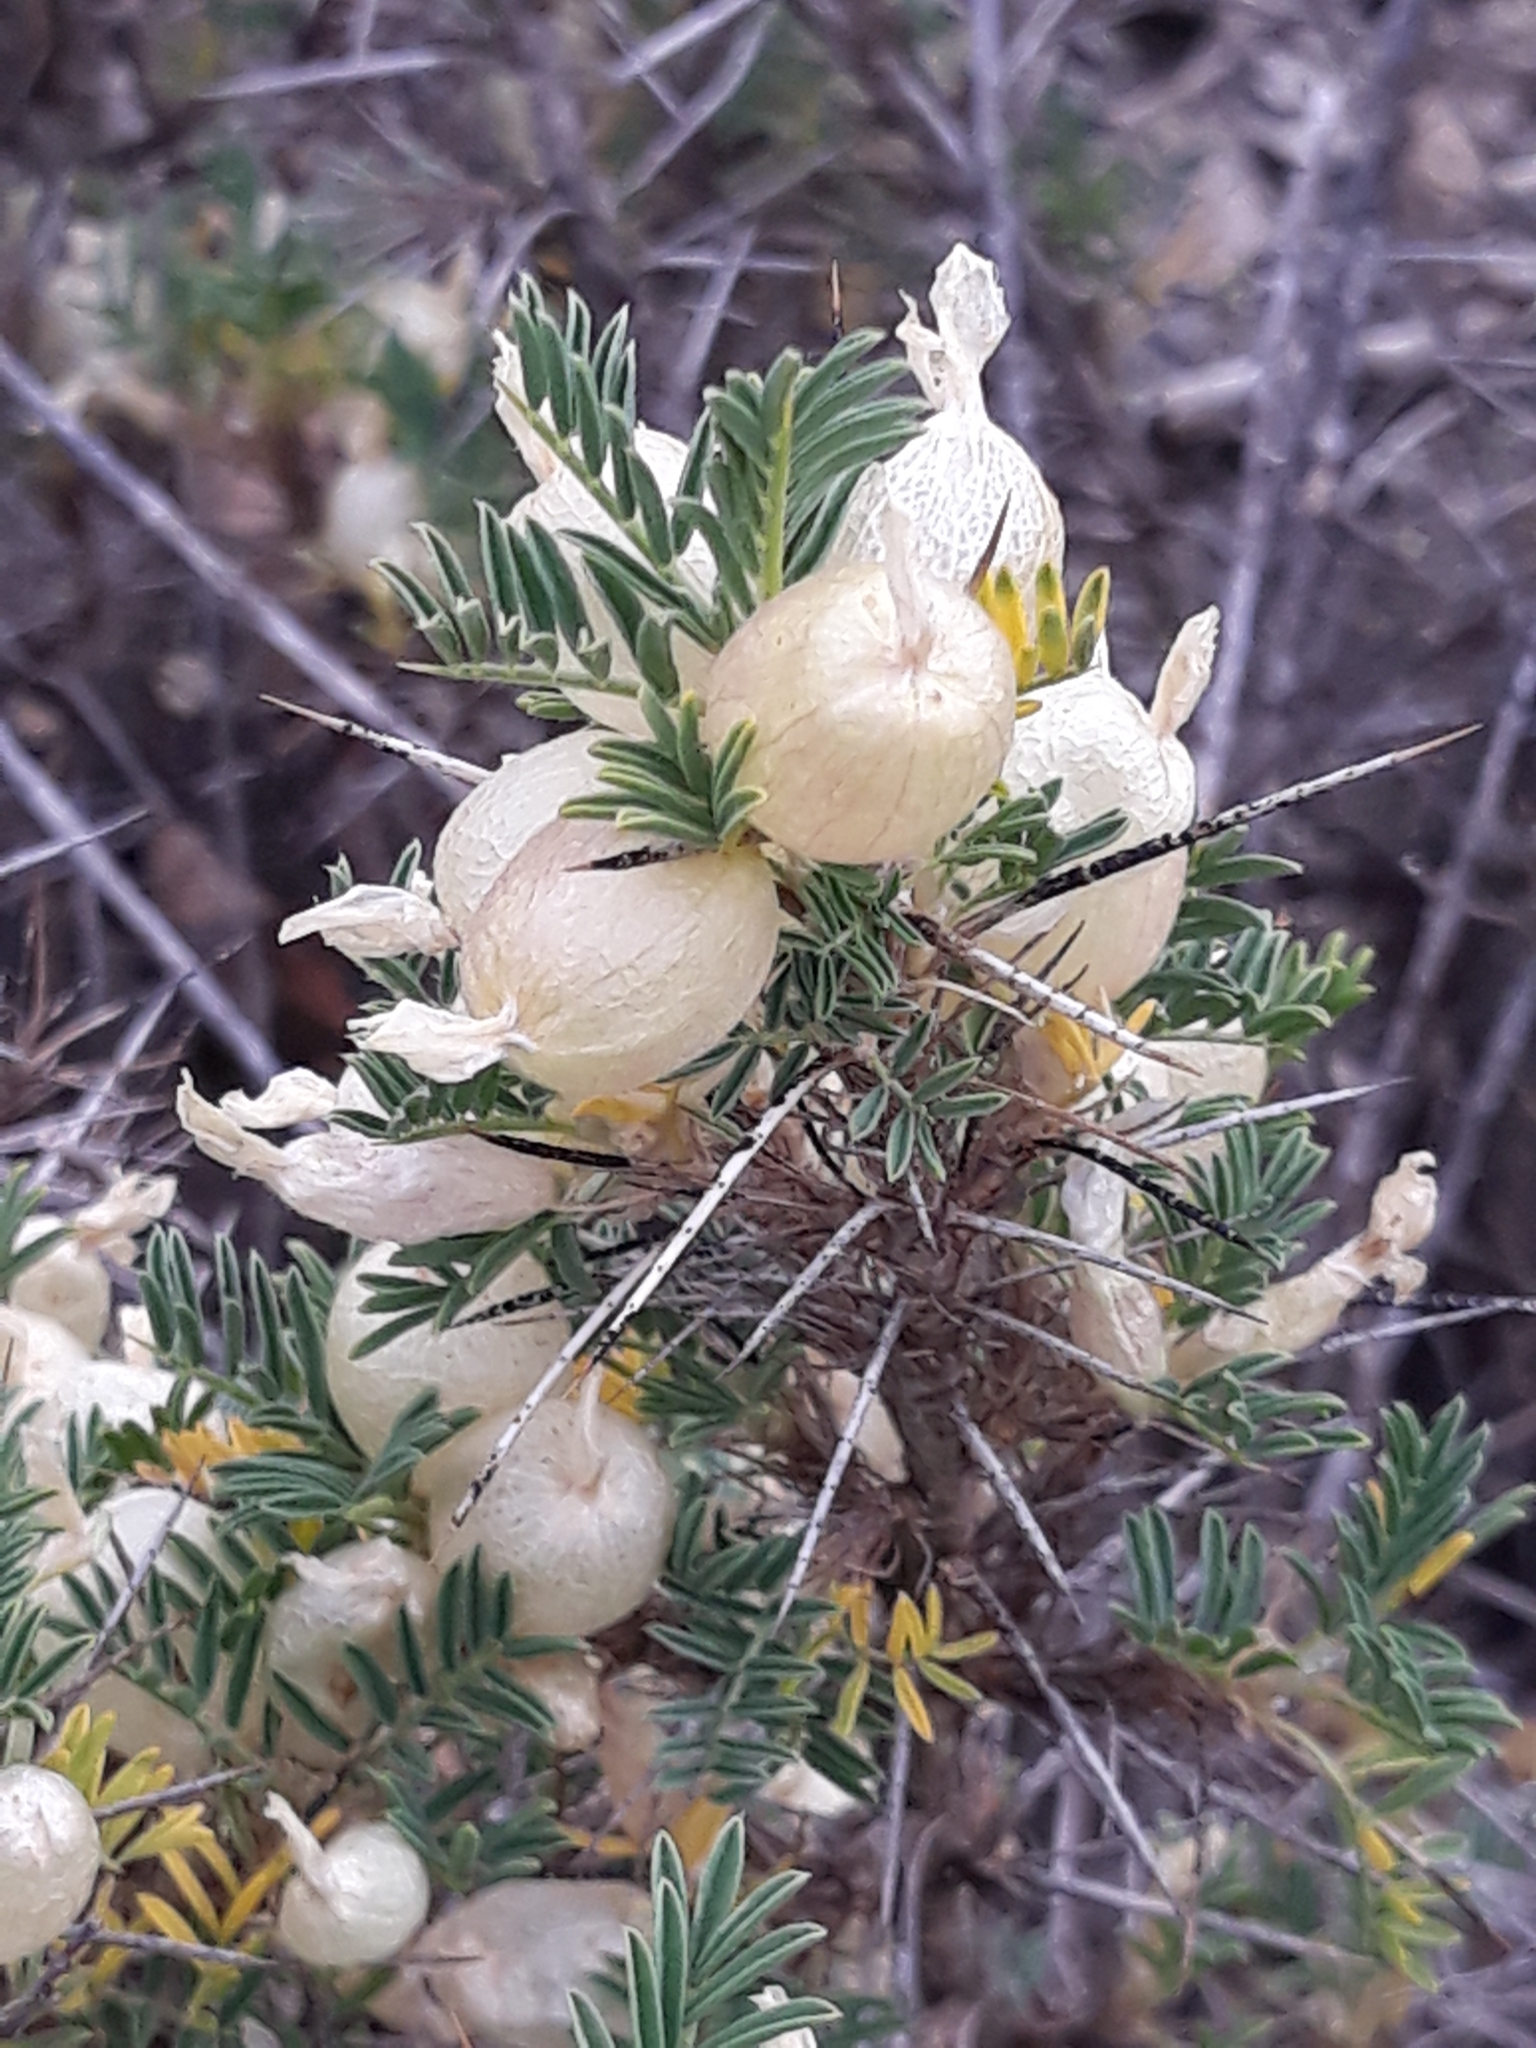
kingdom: Plantae
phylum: Tracheophyta
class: Magnoliopsida
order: Fabales
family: Fabaceae
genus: Astragalus
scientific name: Astragalus armatus
